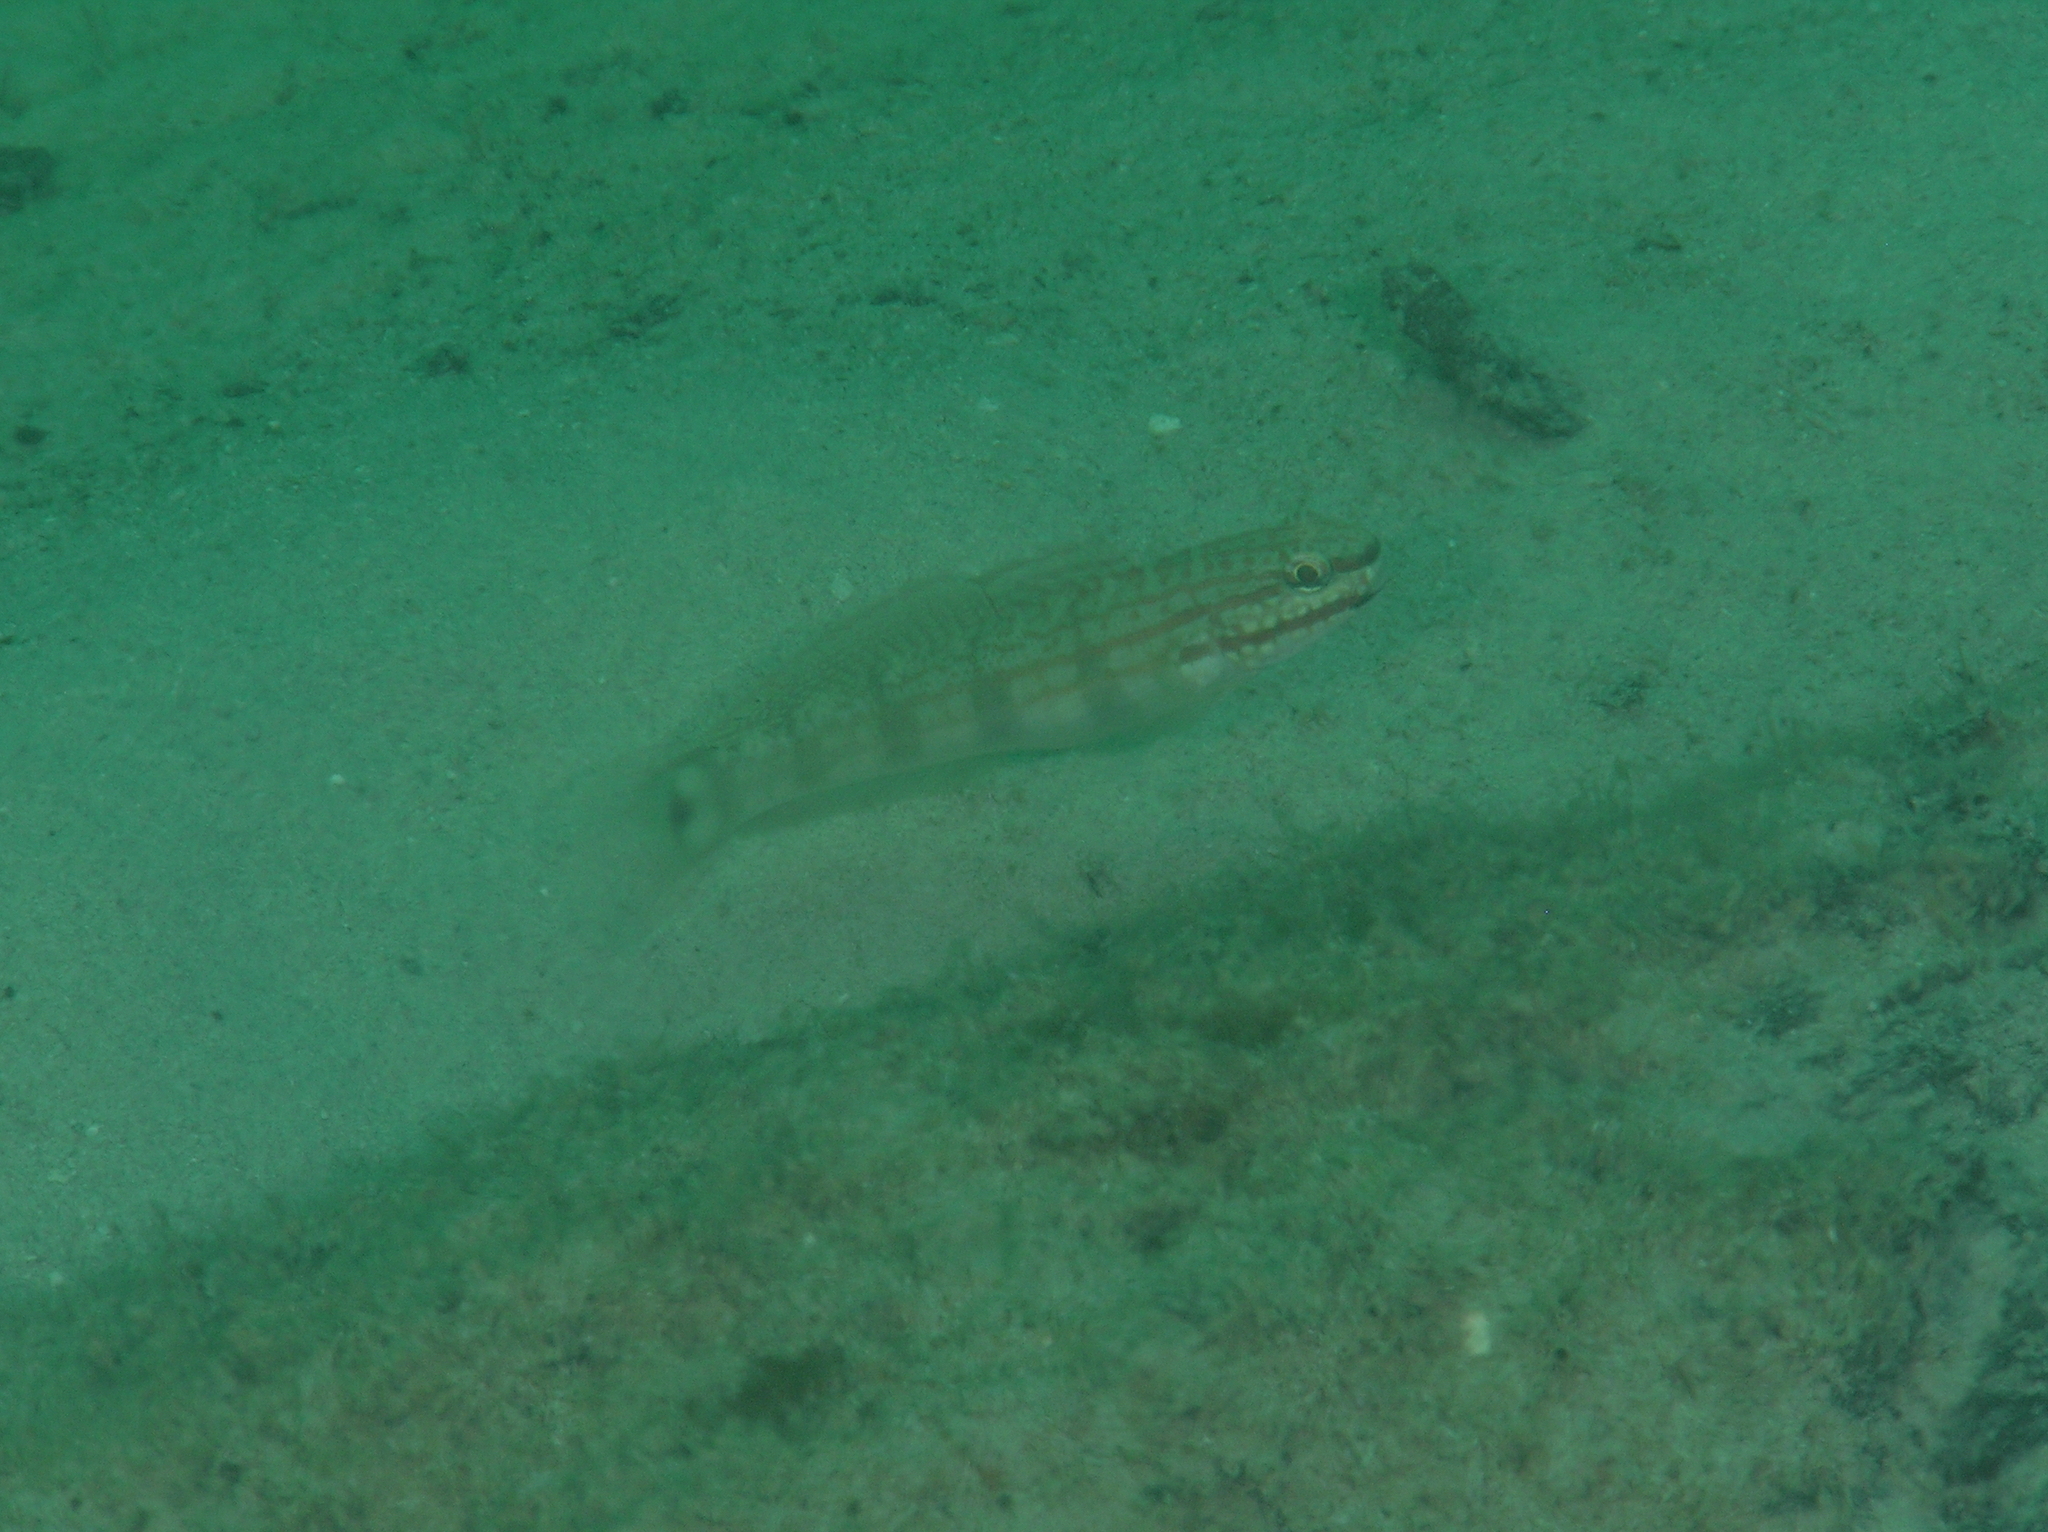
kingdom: Animalia
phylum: Chordata
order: Perciformes
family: Gobiidae
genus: Amblygobius
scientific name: Amblygobius buanensis
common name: Buan goby
